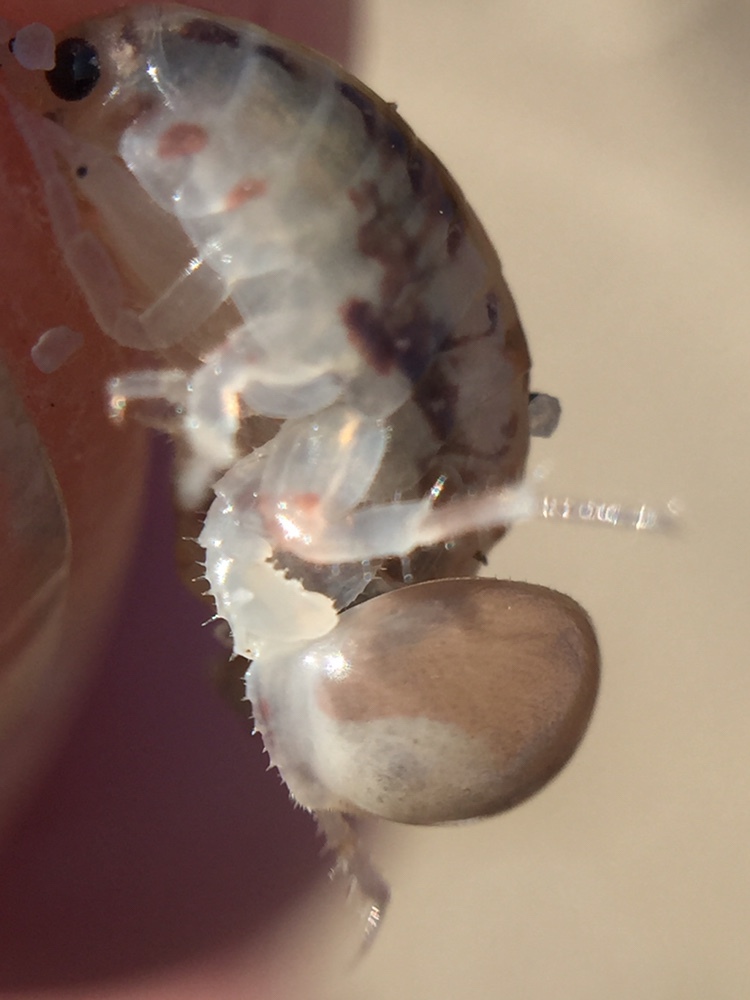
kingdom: Animalia
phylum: Arthropoda
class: Malacostraca
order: Amphipoda
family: Talitridae
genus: Aotearorchestia
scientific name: Aotearorchestia telluris
